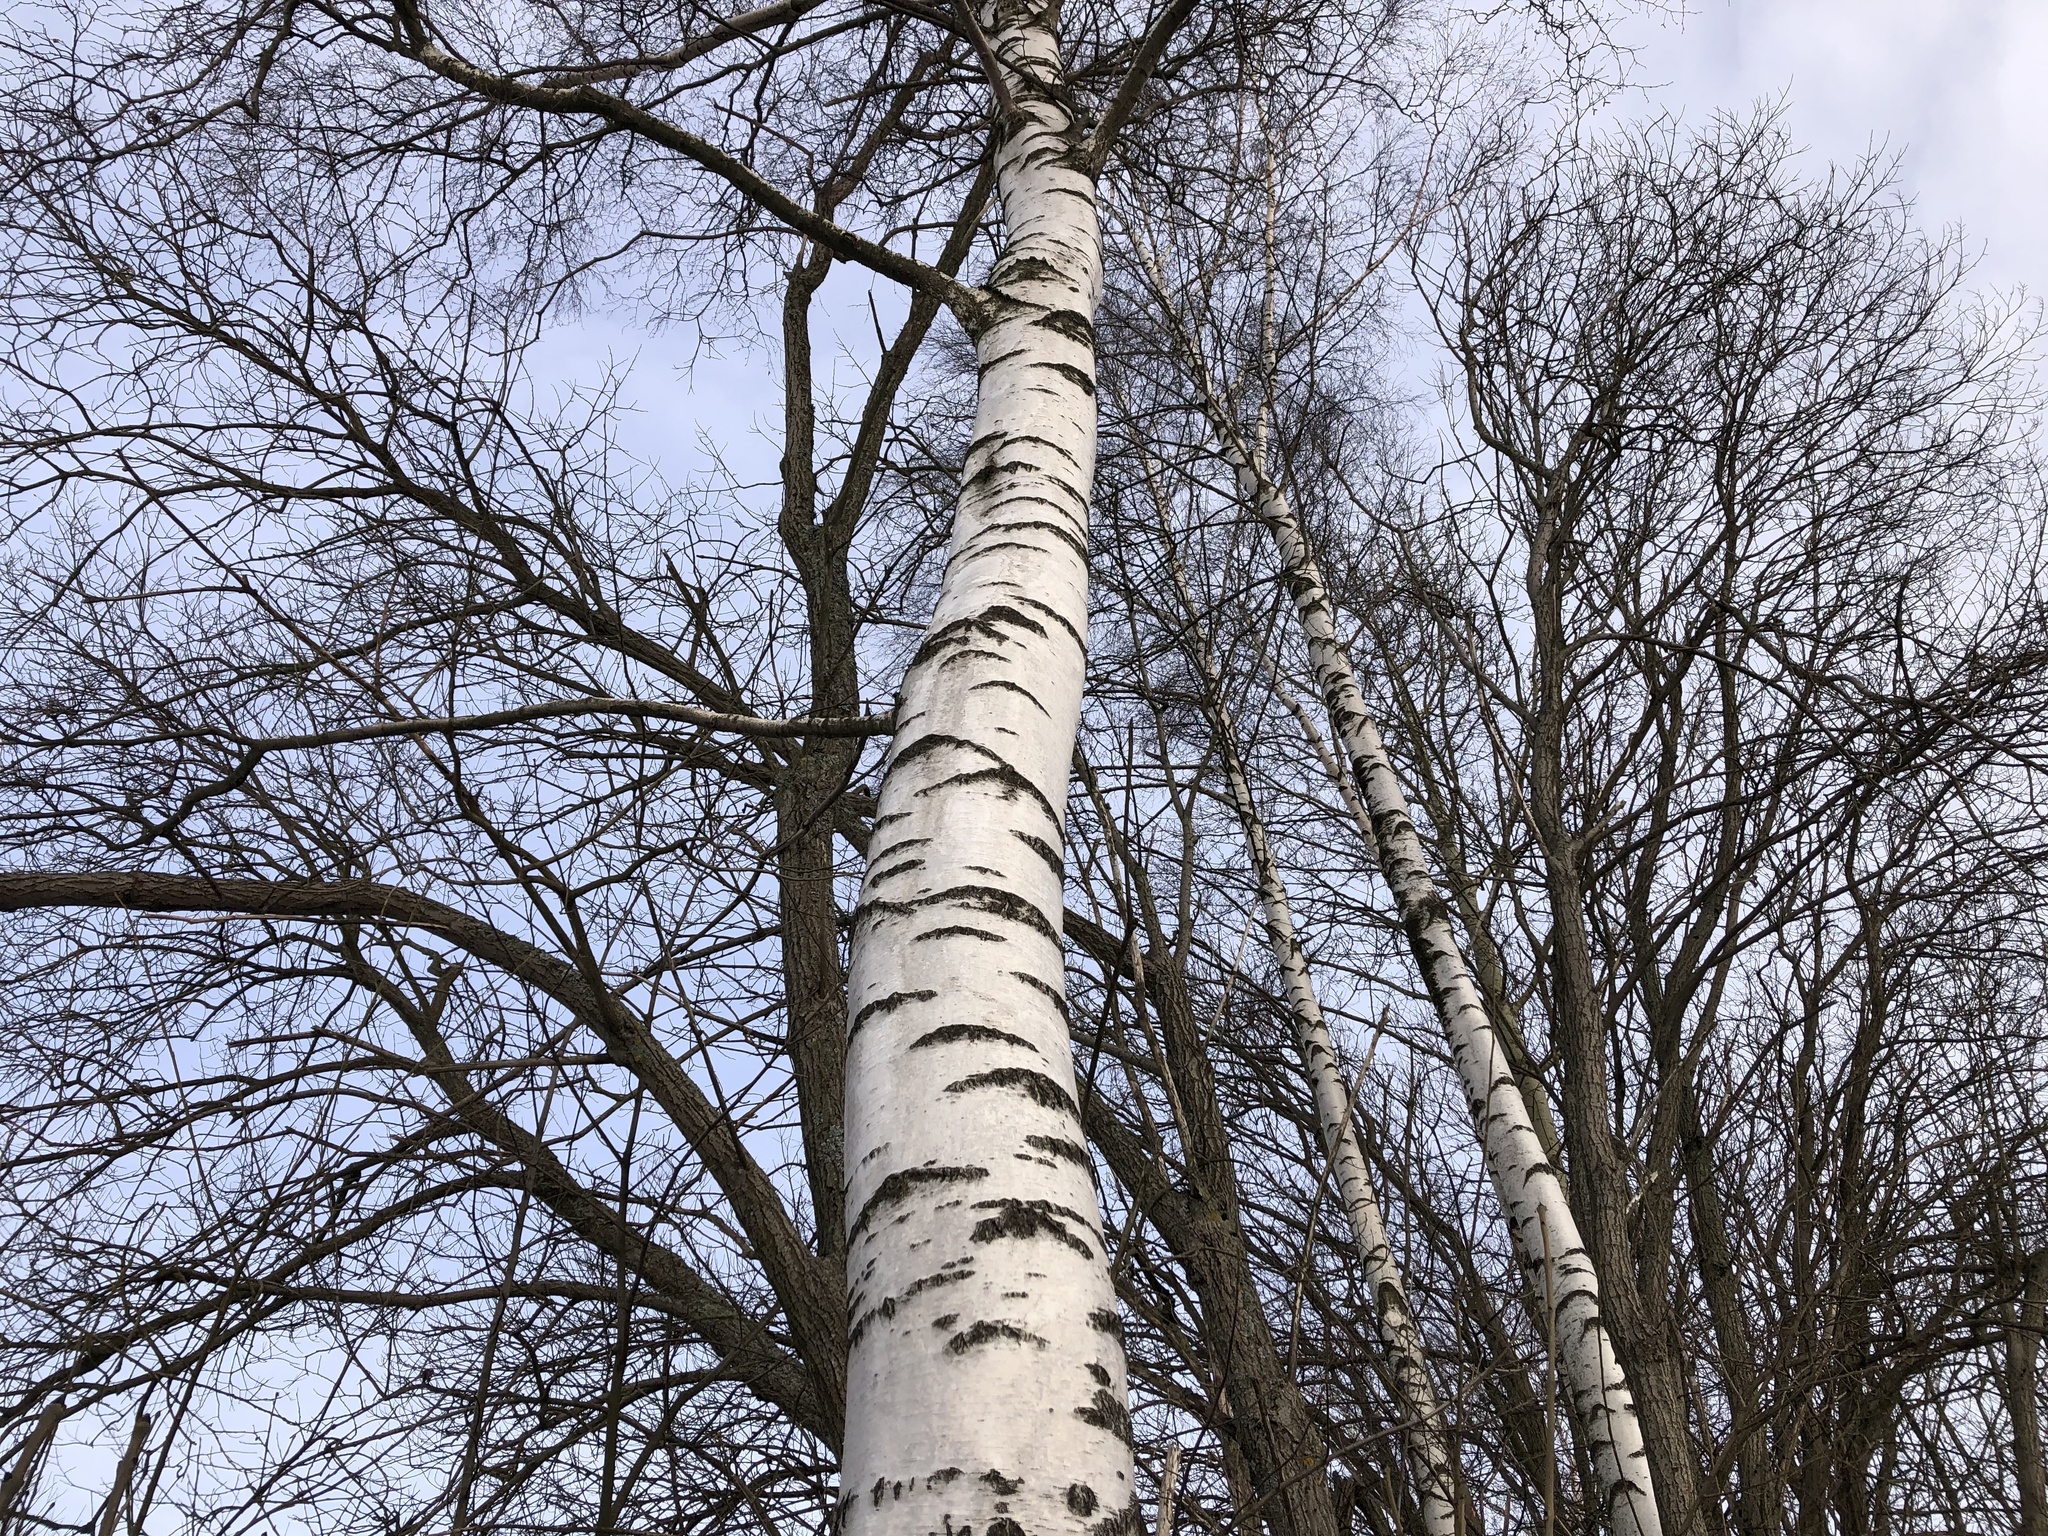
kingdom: Plantae
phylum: Tracheophyta
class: Magnoliopsida
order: Fagales
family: Betulaceae
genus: Betula
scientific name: Betula pendula
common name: Silver birch
